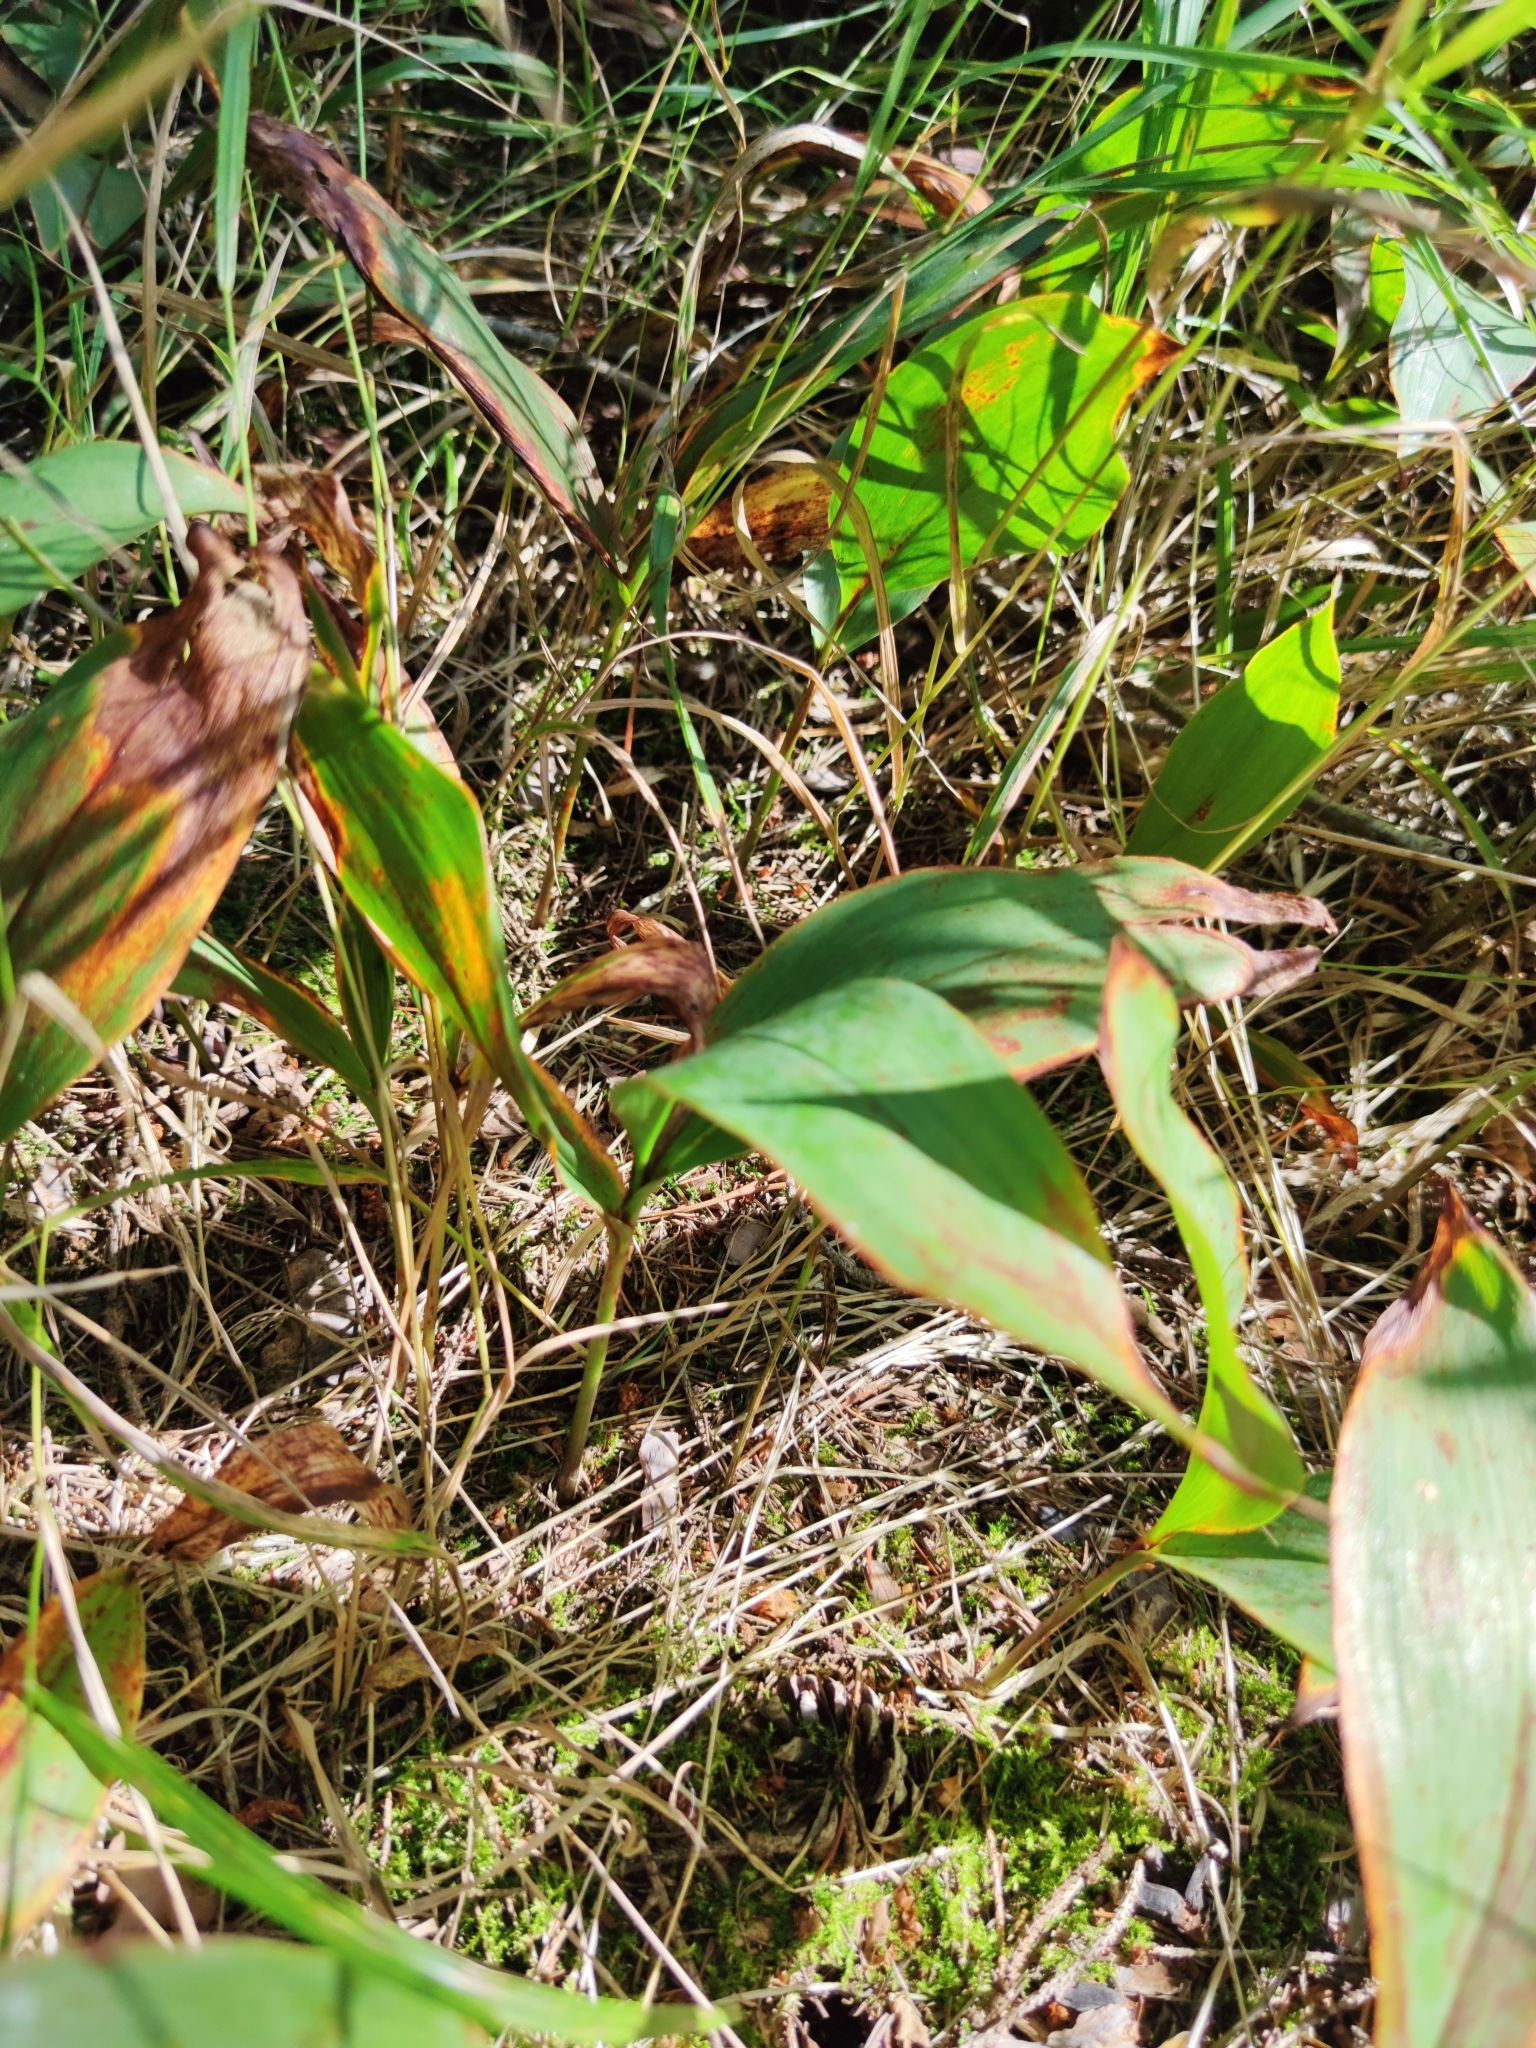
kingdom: Plantae
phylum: Tracheophyta
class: Liliopsida
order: Asparagales
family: Asparagaceae
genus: Convallaria
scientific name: Convallaria majalis
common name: Lily-of-the-valley
